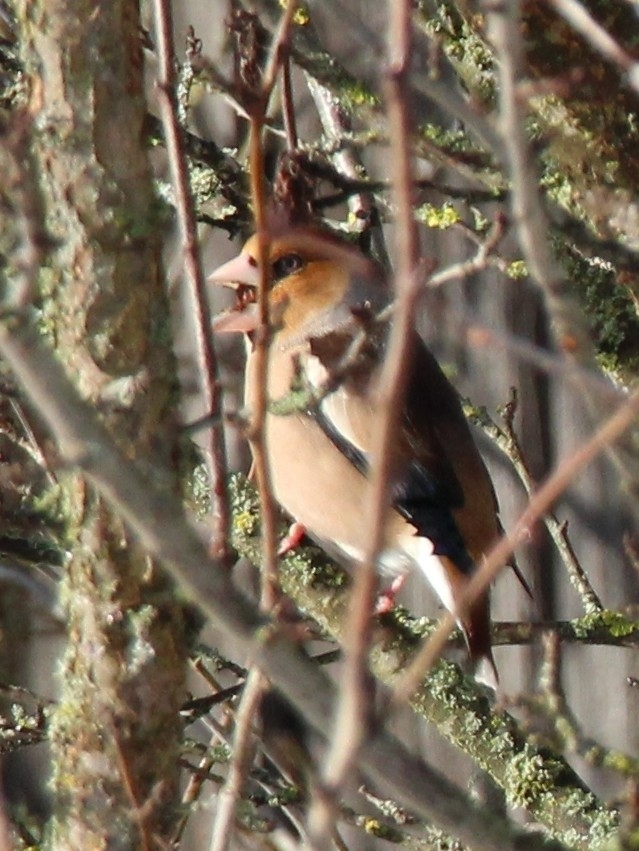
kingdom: Animalia
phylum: Chordata
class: Aves
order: Passeriformes
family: Fringillidae
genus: Coccothraustes
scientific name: Coccothraustes coccothraustes
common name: Hawfinch
